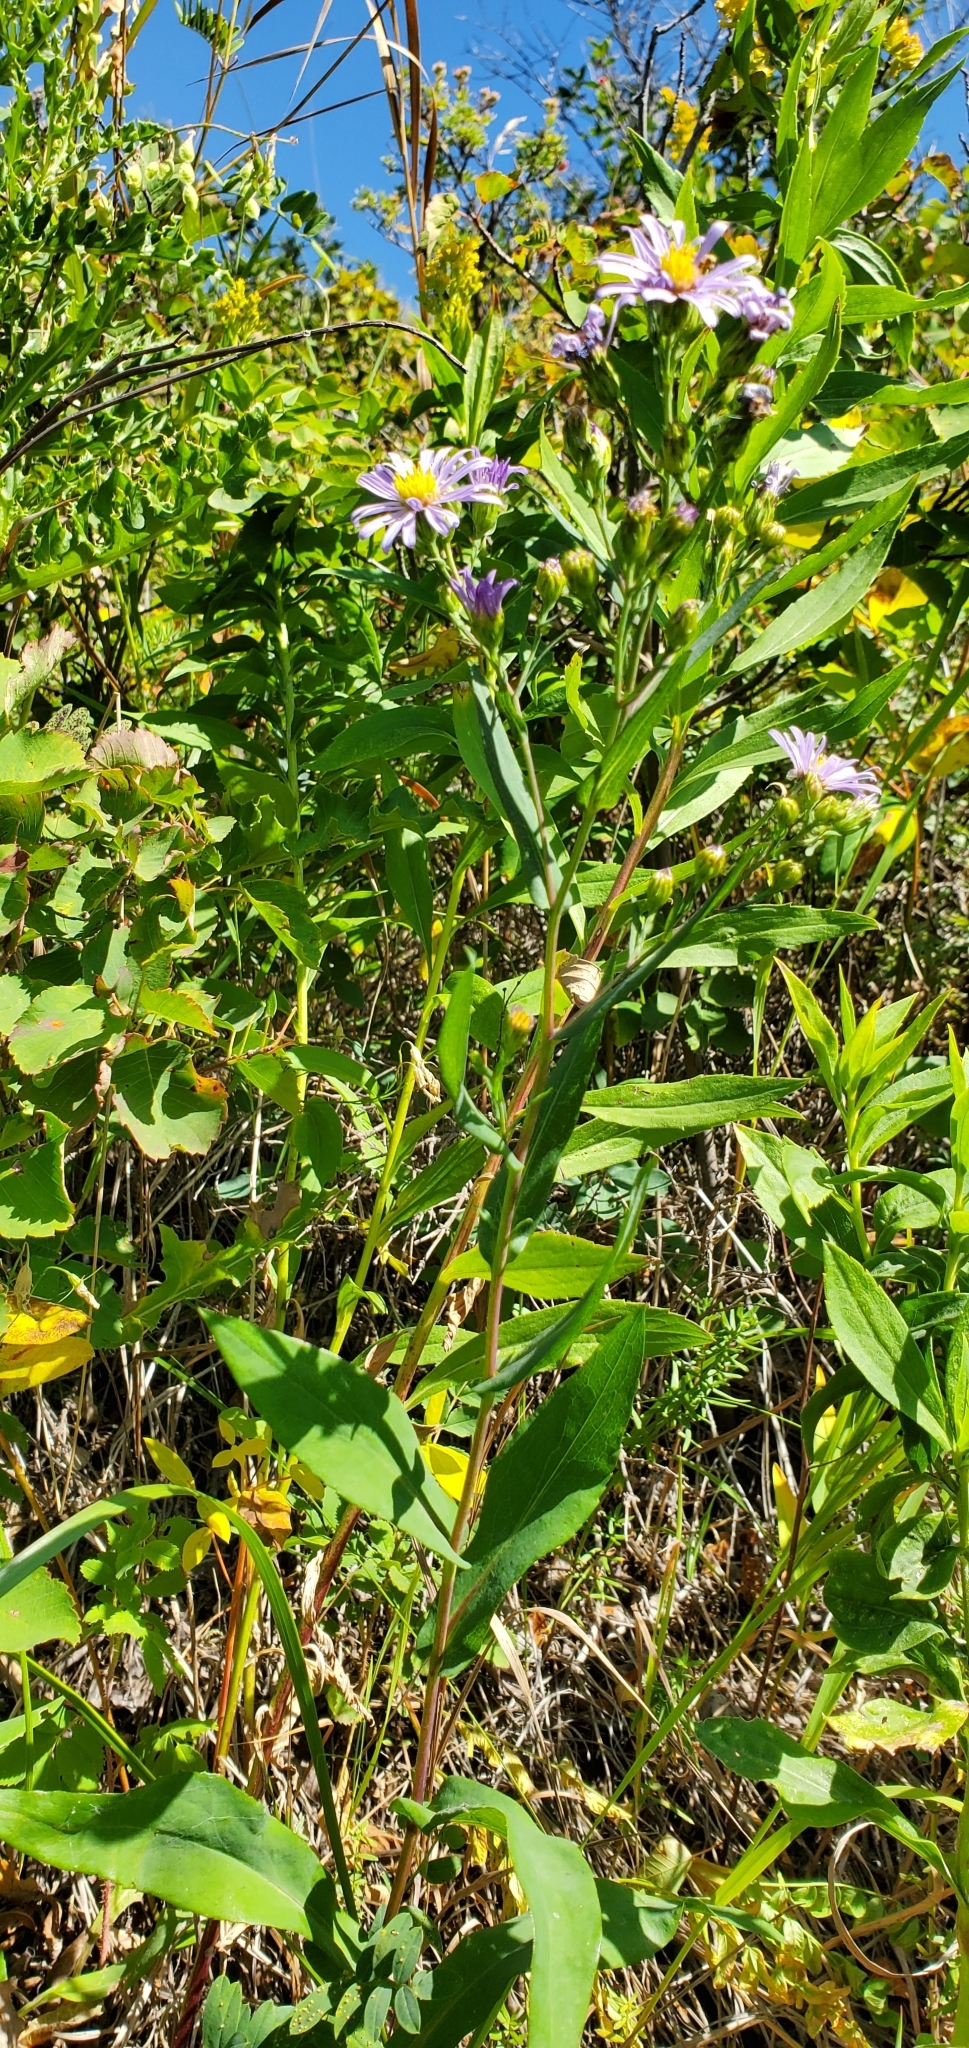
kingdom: Plantae
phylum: Tracheophyta
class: Magnoliopsida
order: Asterales
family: Asteraceae
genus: Symphyotrichum
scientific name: Symphyotrichum laeve
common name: Glaucous aster
